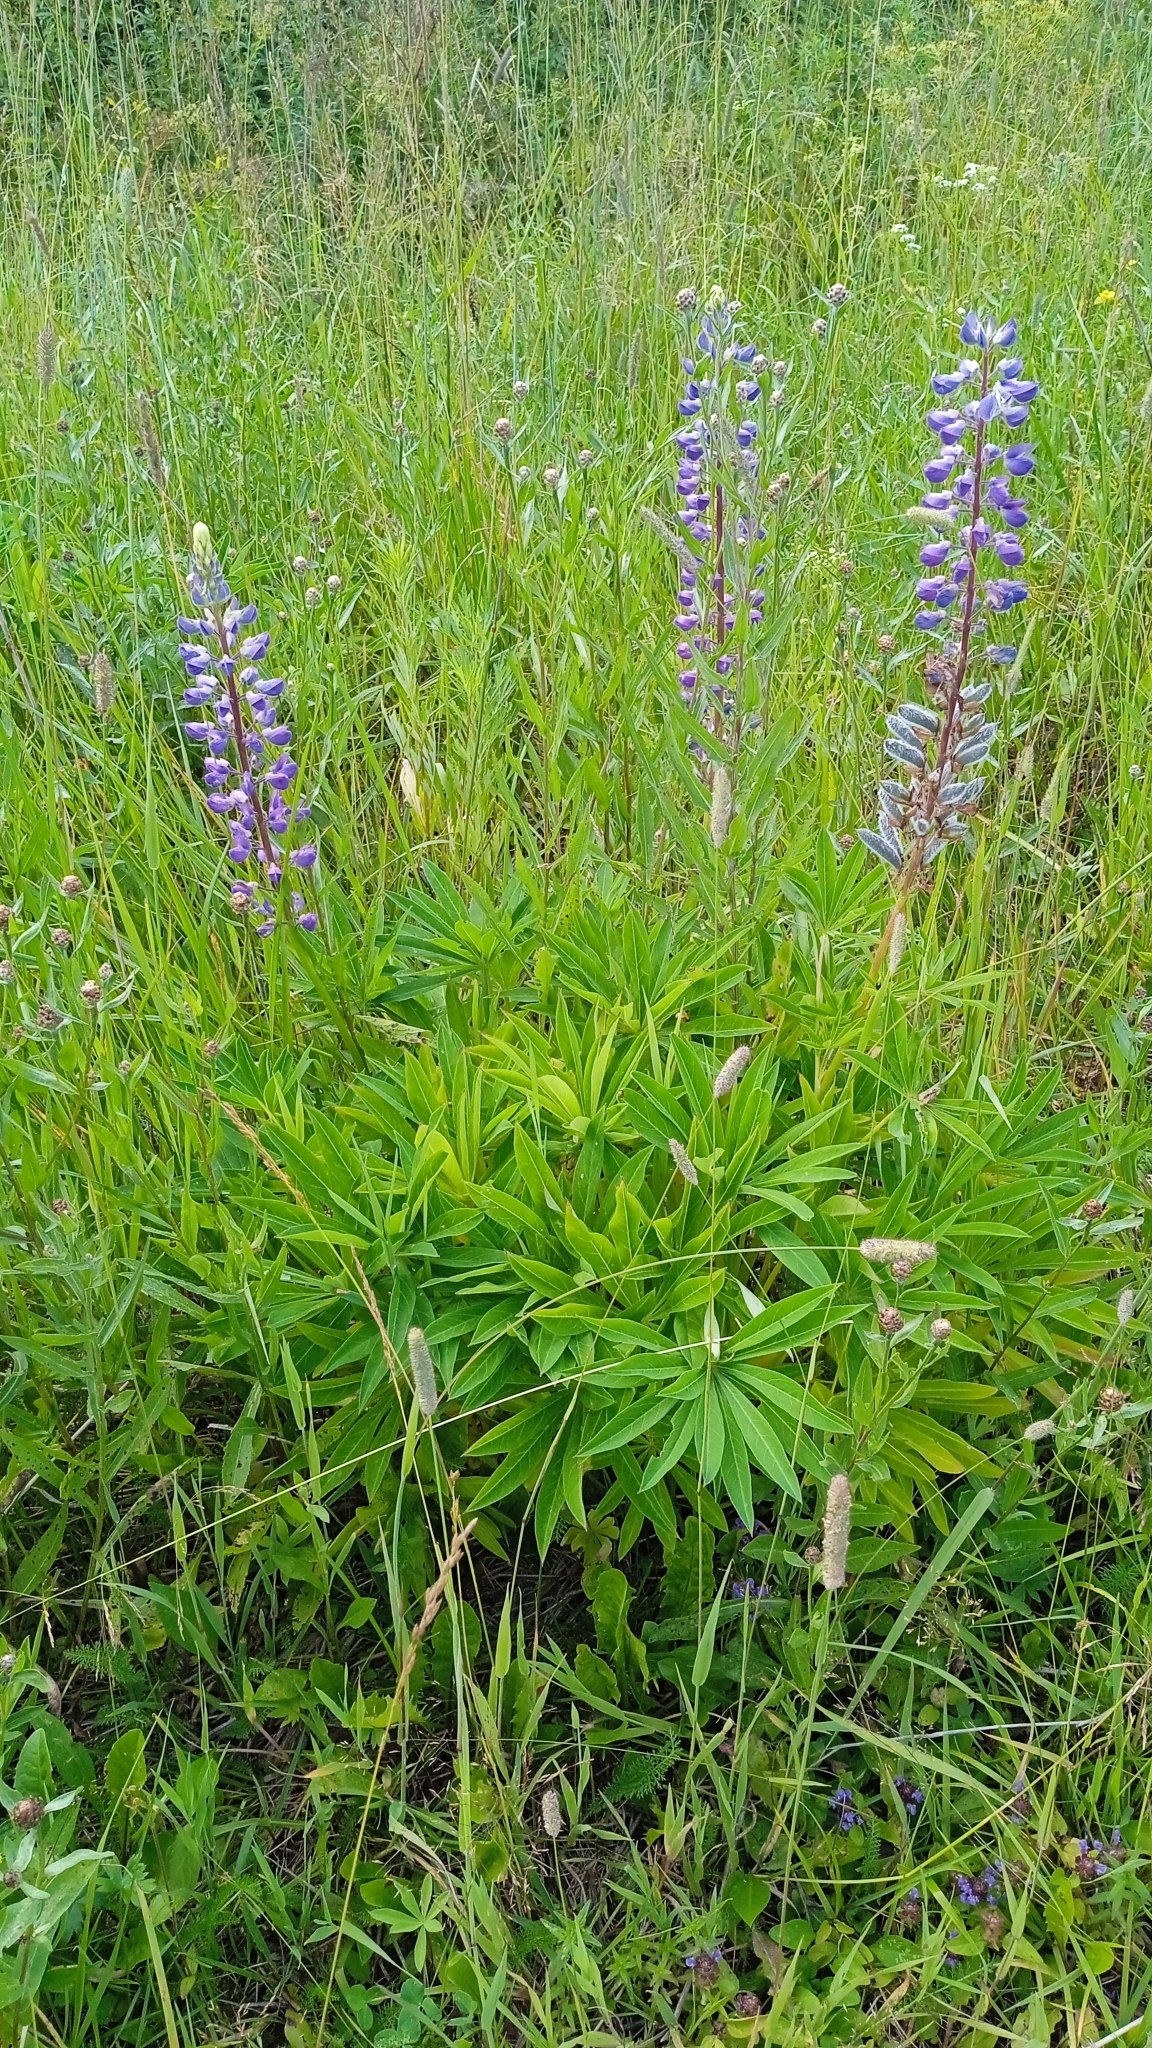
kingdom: Plantae
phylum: Tracheophyta
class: Magnoliopsida
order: Fabales
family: Fabaceae
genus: Lupinus
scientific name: Lupinus polyphyllus
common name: Garden lupin
